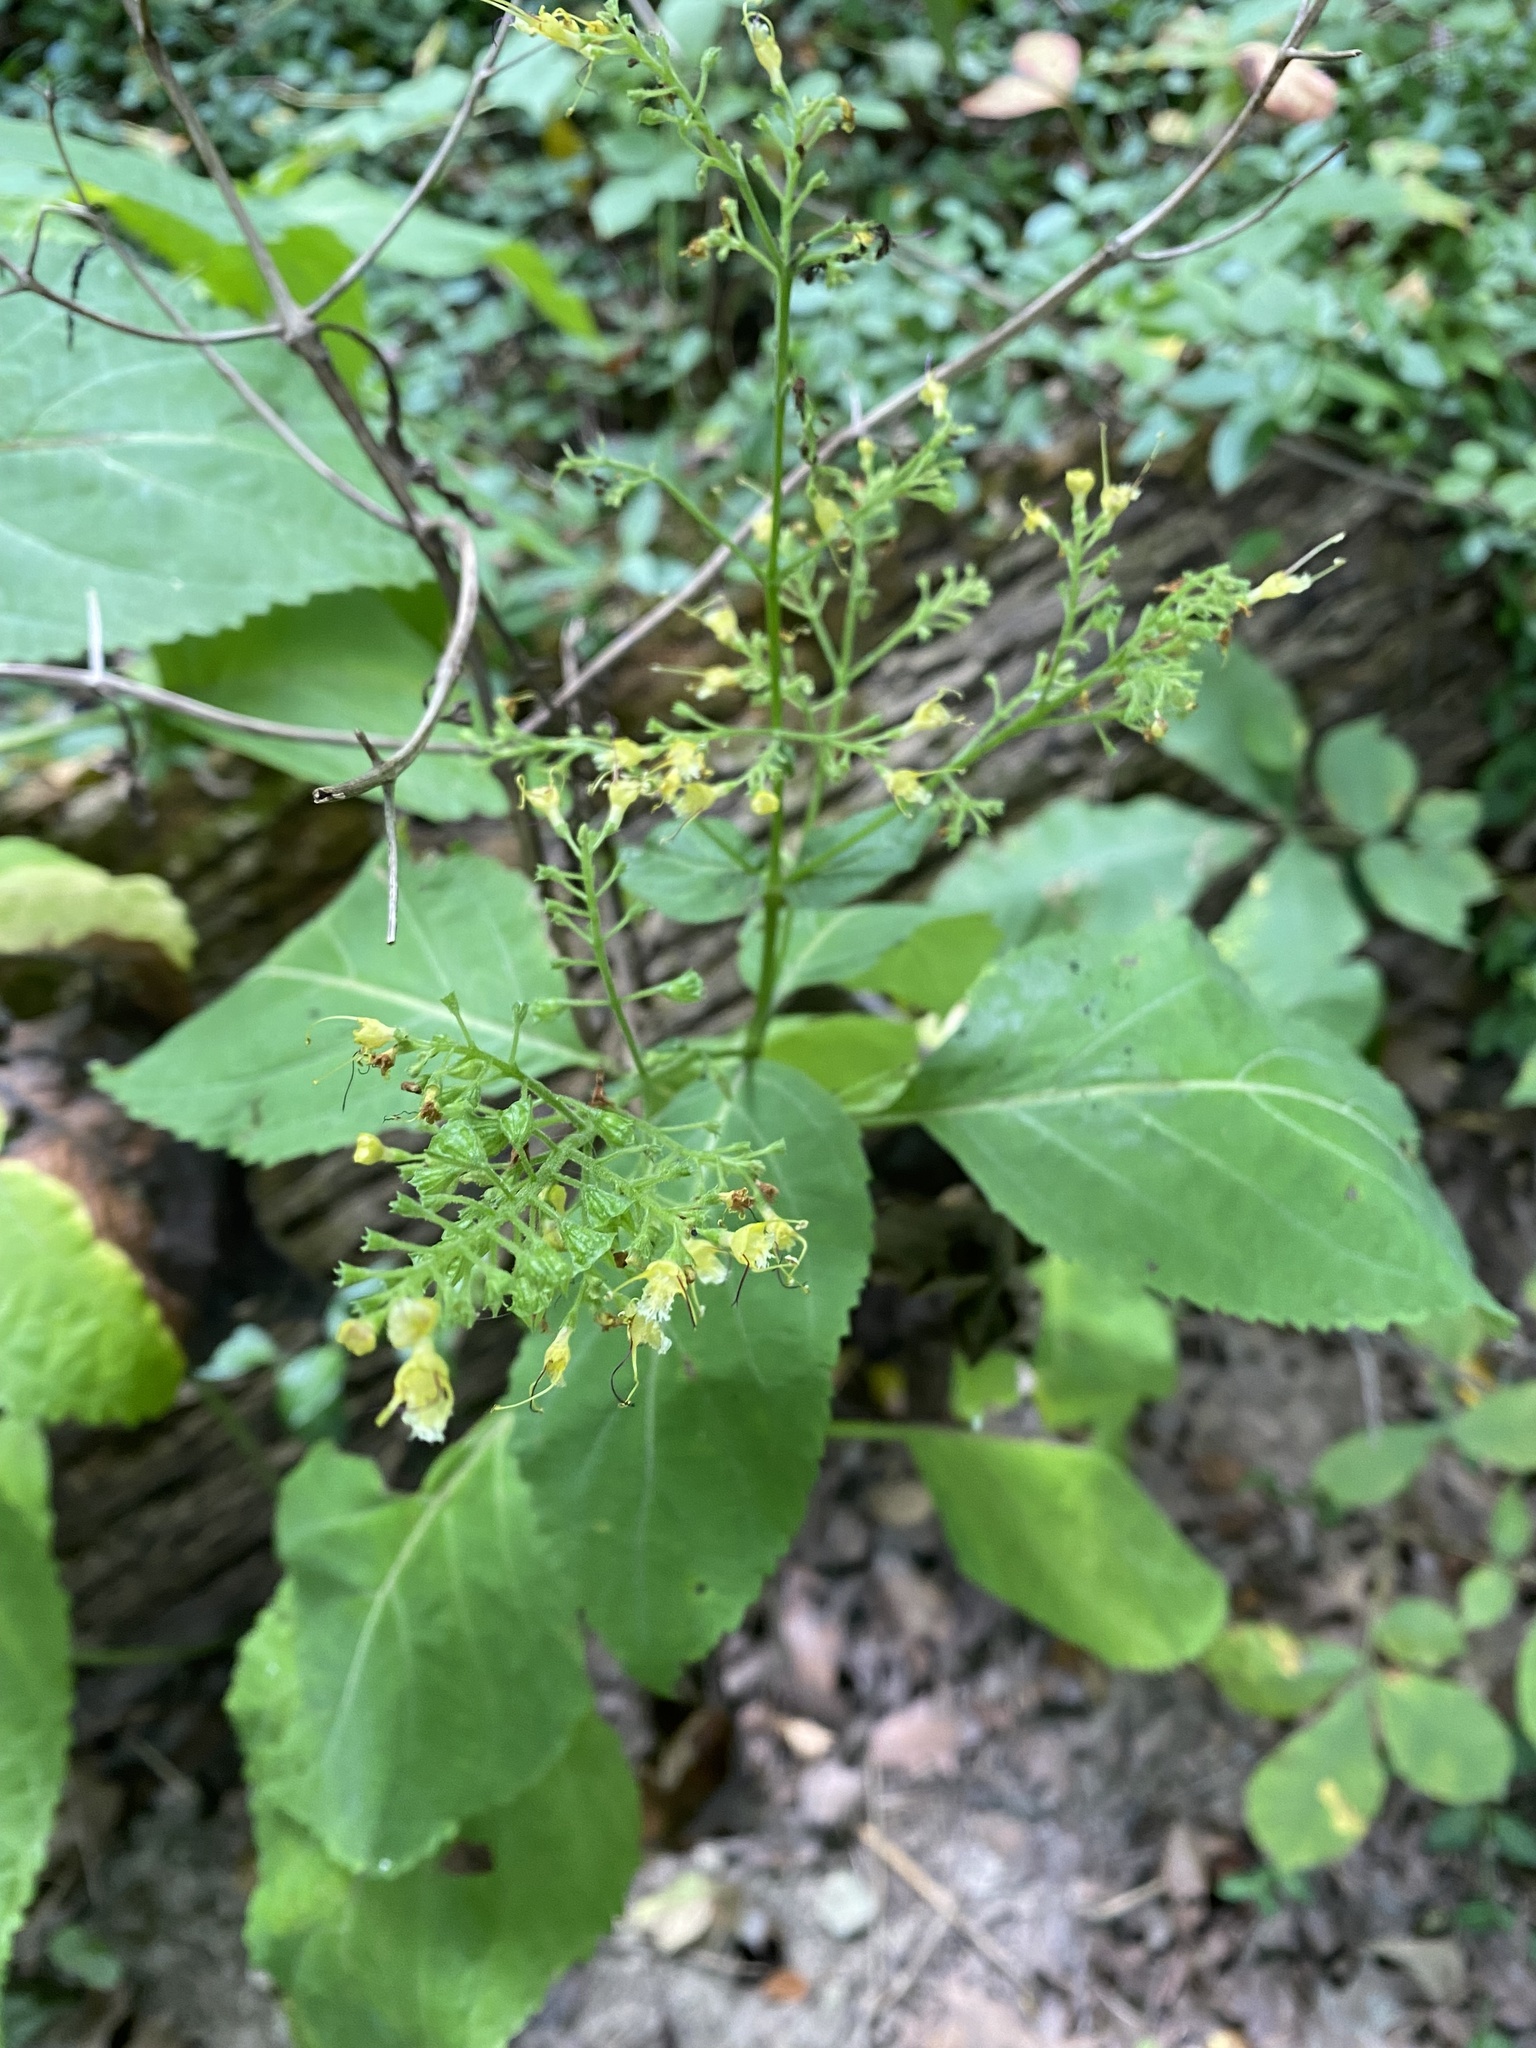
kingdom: Plantae
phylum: Tracheophyta
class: Magnoliopsida
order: Lamiales
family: Lamiaceae
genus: Collinsonia
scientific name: Collinsonia canadensis
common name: Northern horsebalm
